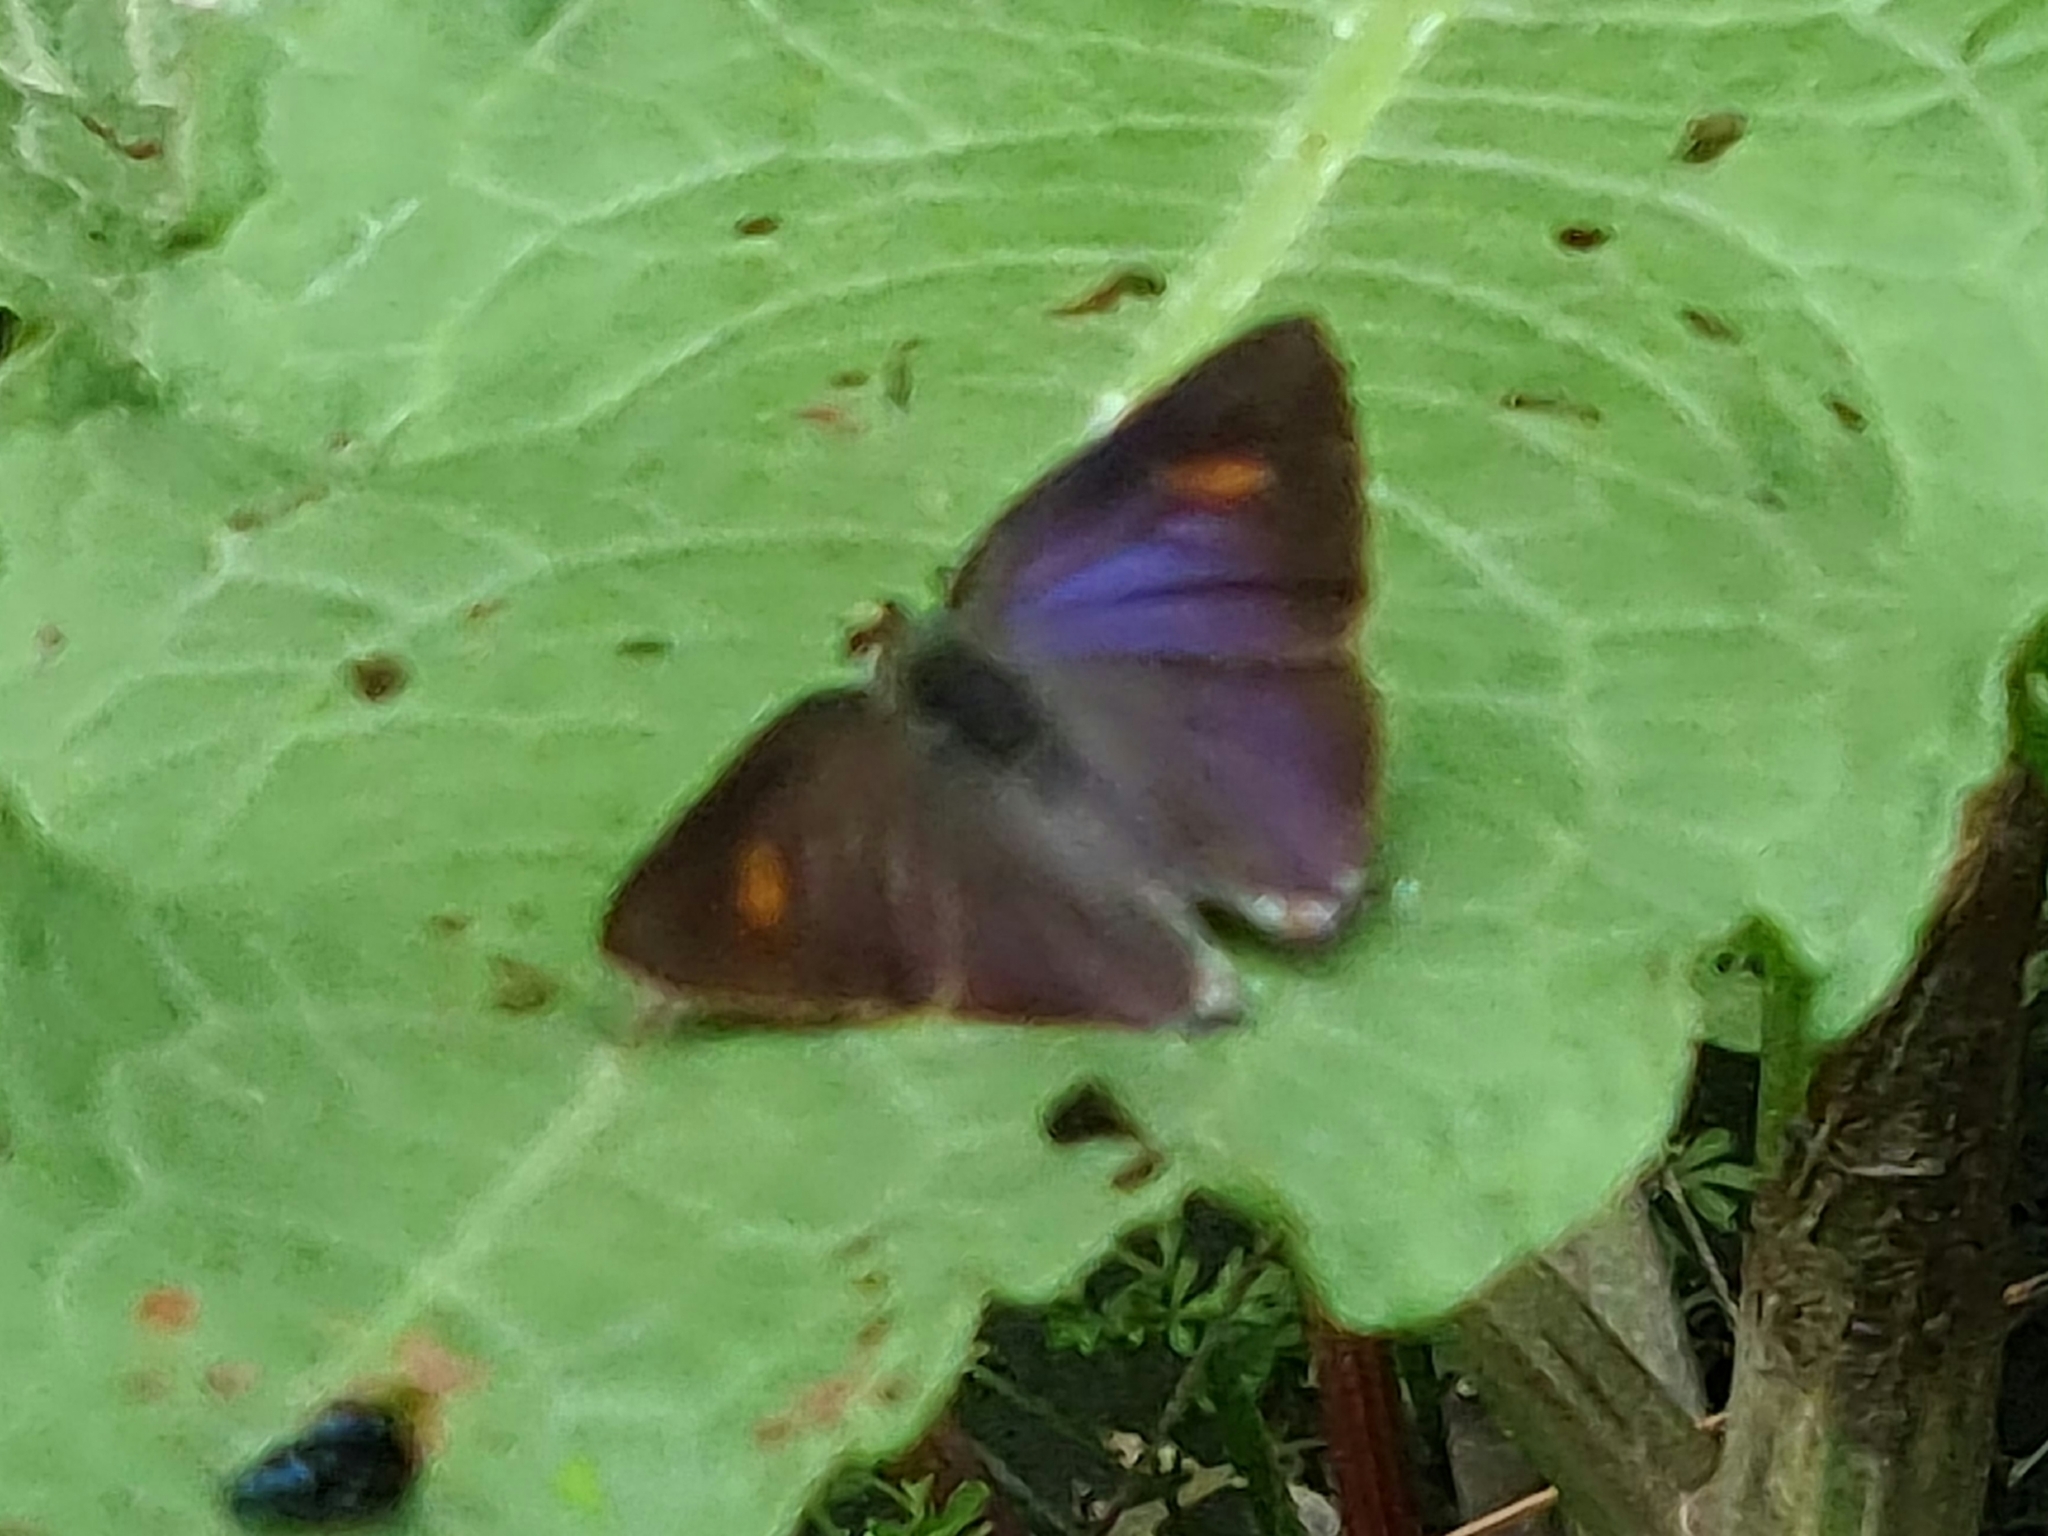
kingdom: Animalia
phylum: Arthropoda
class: Insecta
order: Lepidoptera
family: Lycaenidae
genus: Rapala
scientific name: Rapala nissa
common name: Common flash
